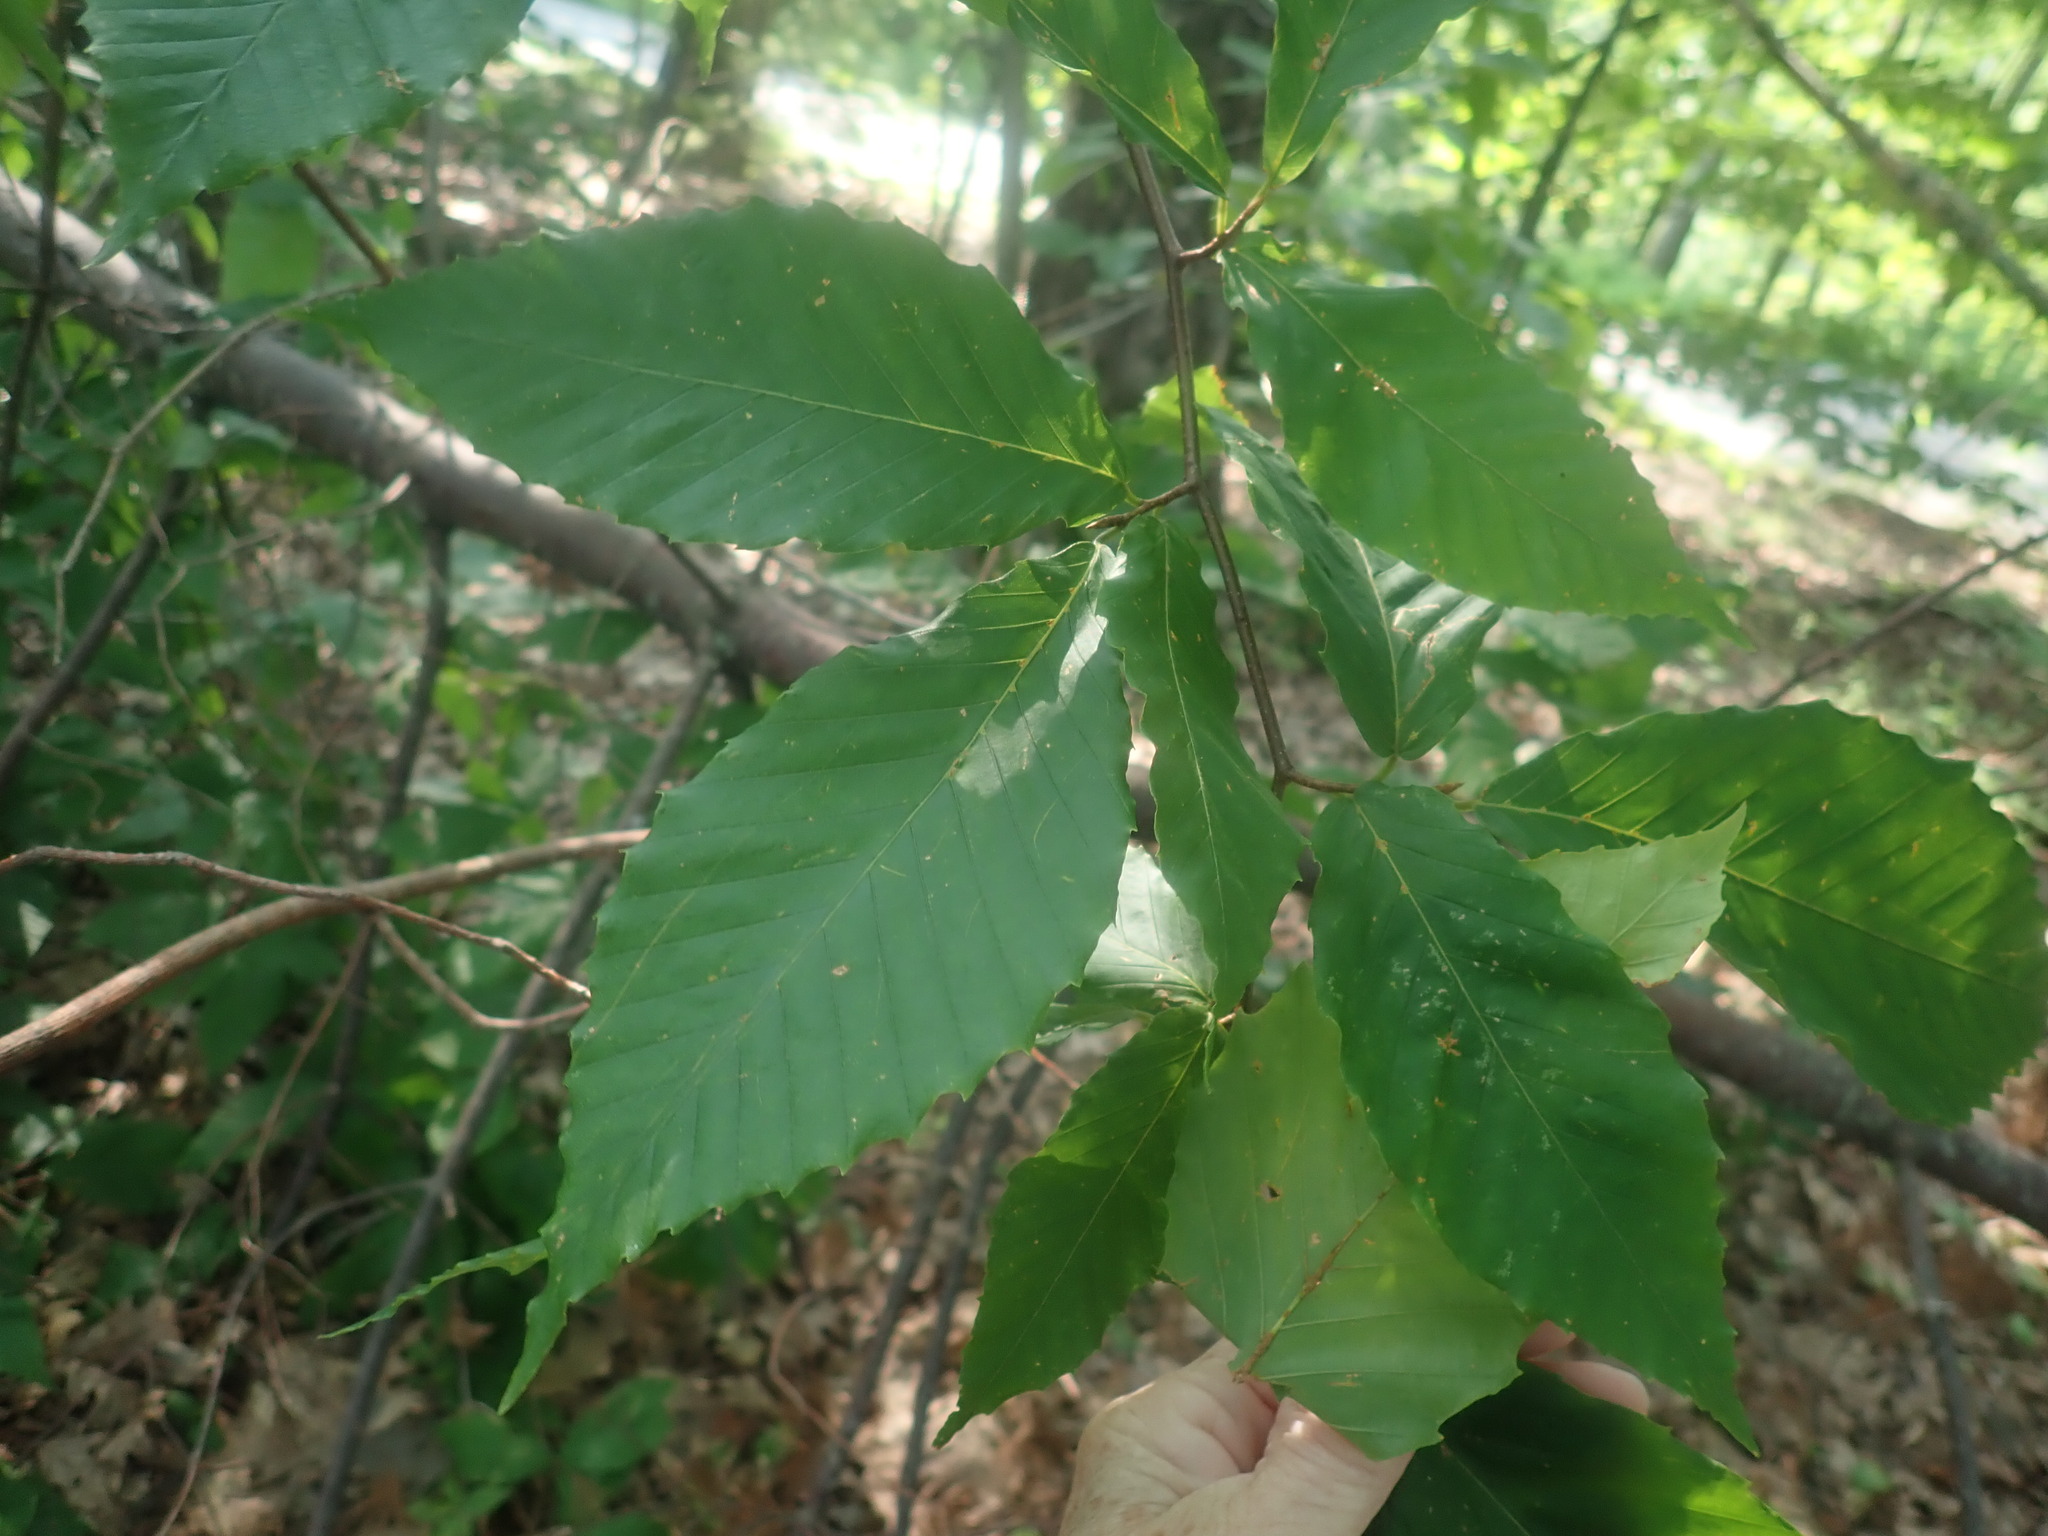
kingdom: Plantae
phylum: Tracheophyta
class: Magnoliopsida
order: Fagales
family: Fagaceae
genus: Fagus
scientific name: Fagus grandifolia
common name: American beech
